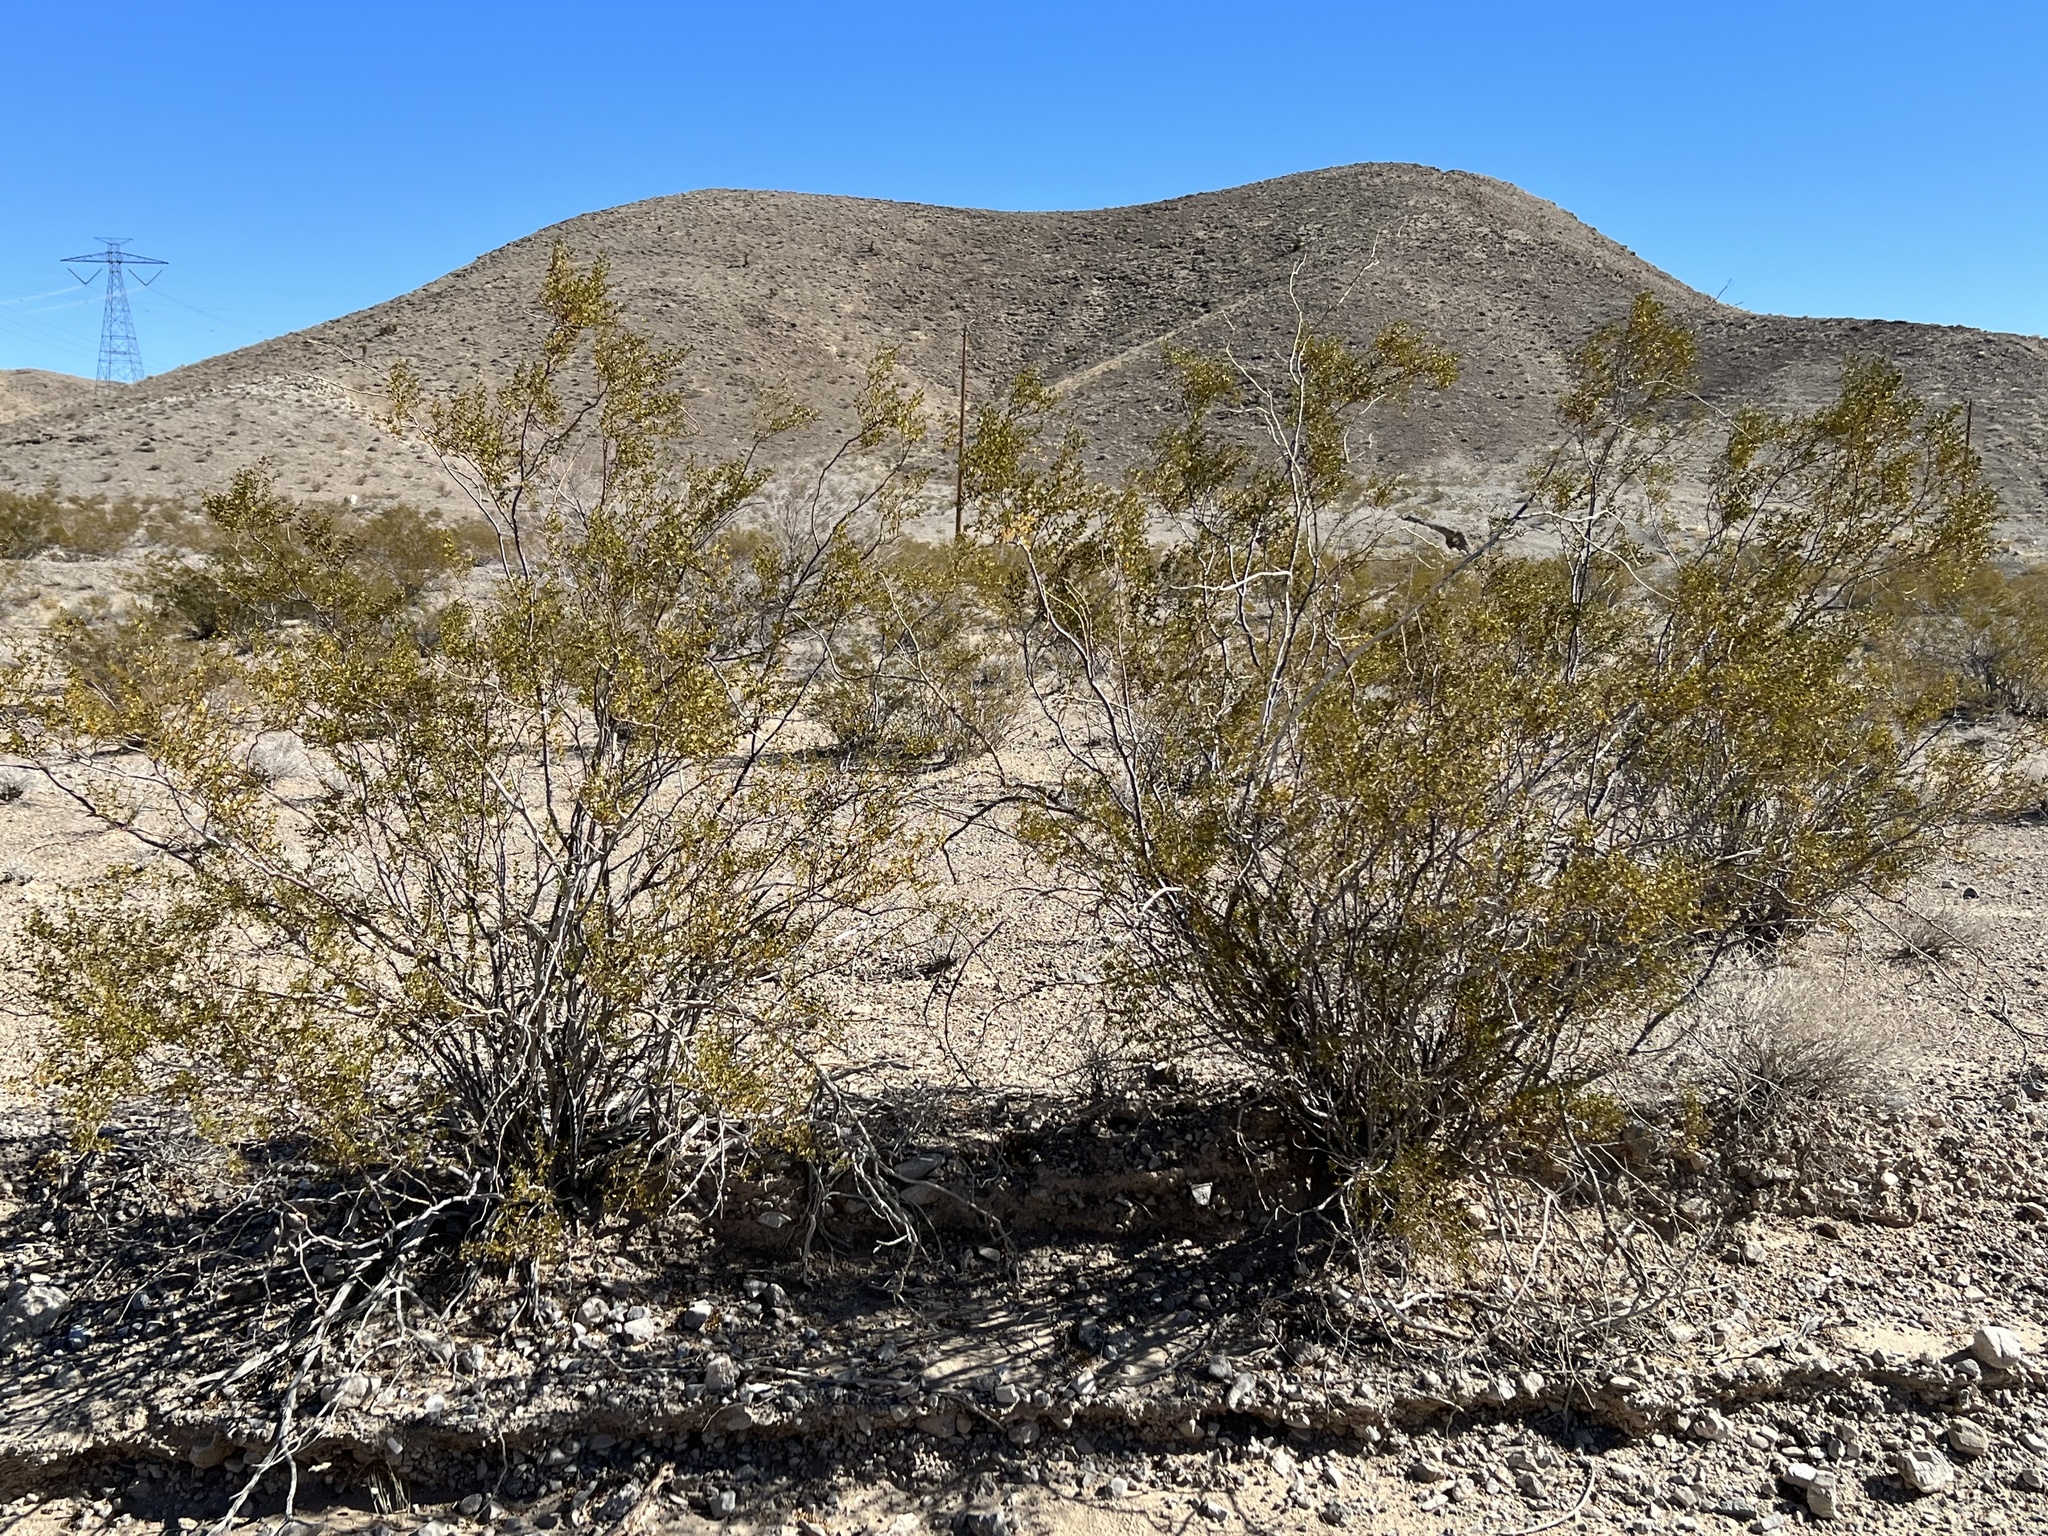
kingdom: Plantae
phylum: Tracheophyta
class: Magnoliopsida
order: Zygophyllales
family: Zygophyllaceae
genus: Larrea
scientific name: Larrea tridentata
